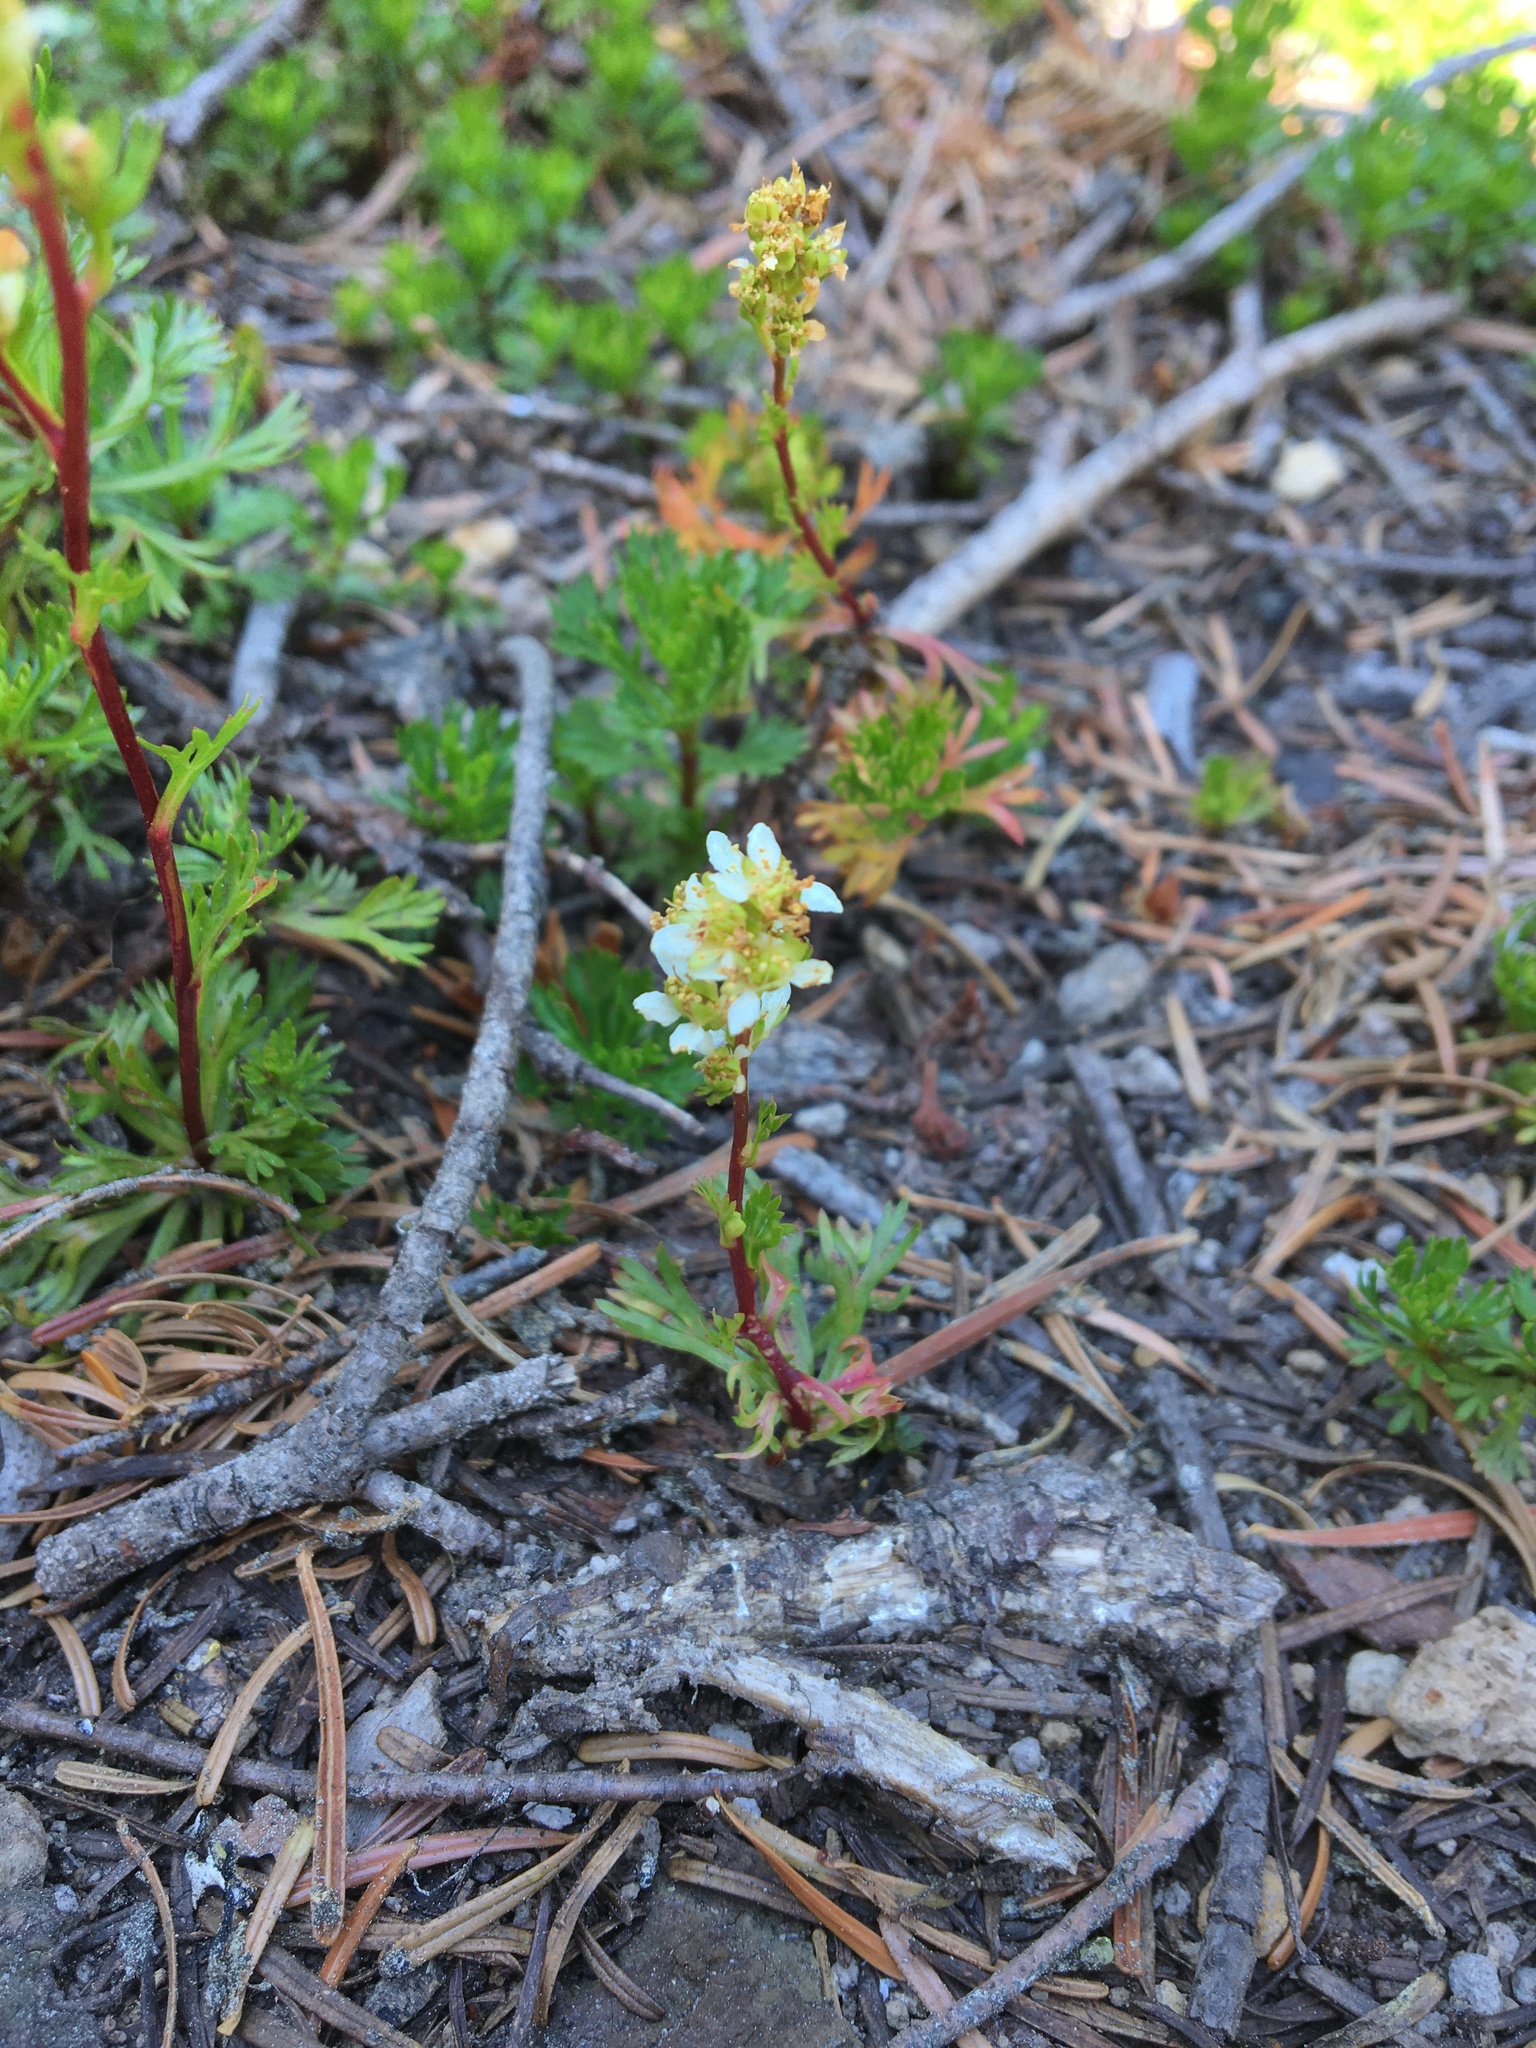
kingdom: Plantae
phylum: Tracheophyta
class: Magnoliopsida
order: Rosales
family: Rosaceae
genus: Luetkea
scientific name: Luetkea pectinata
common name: Partridgefoot
